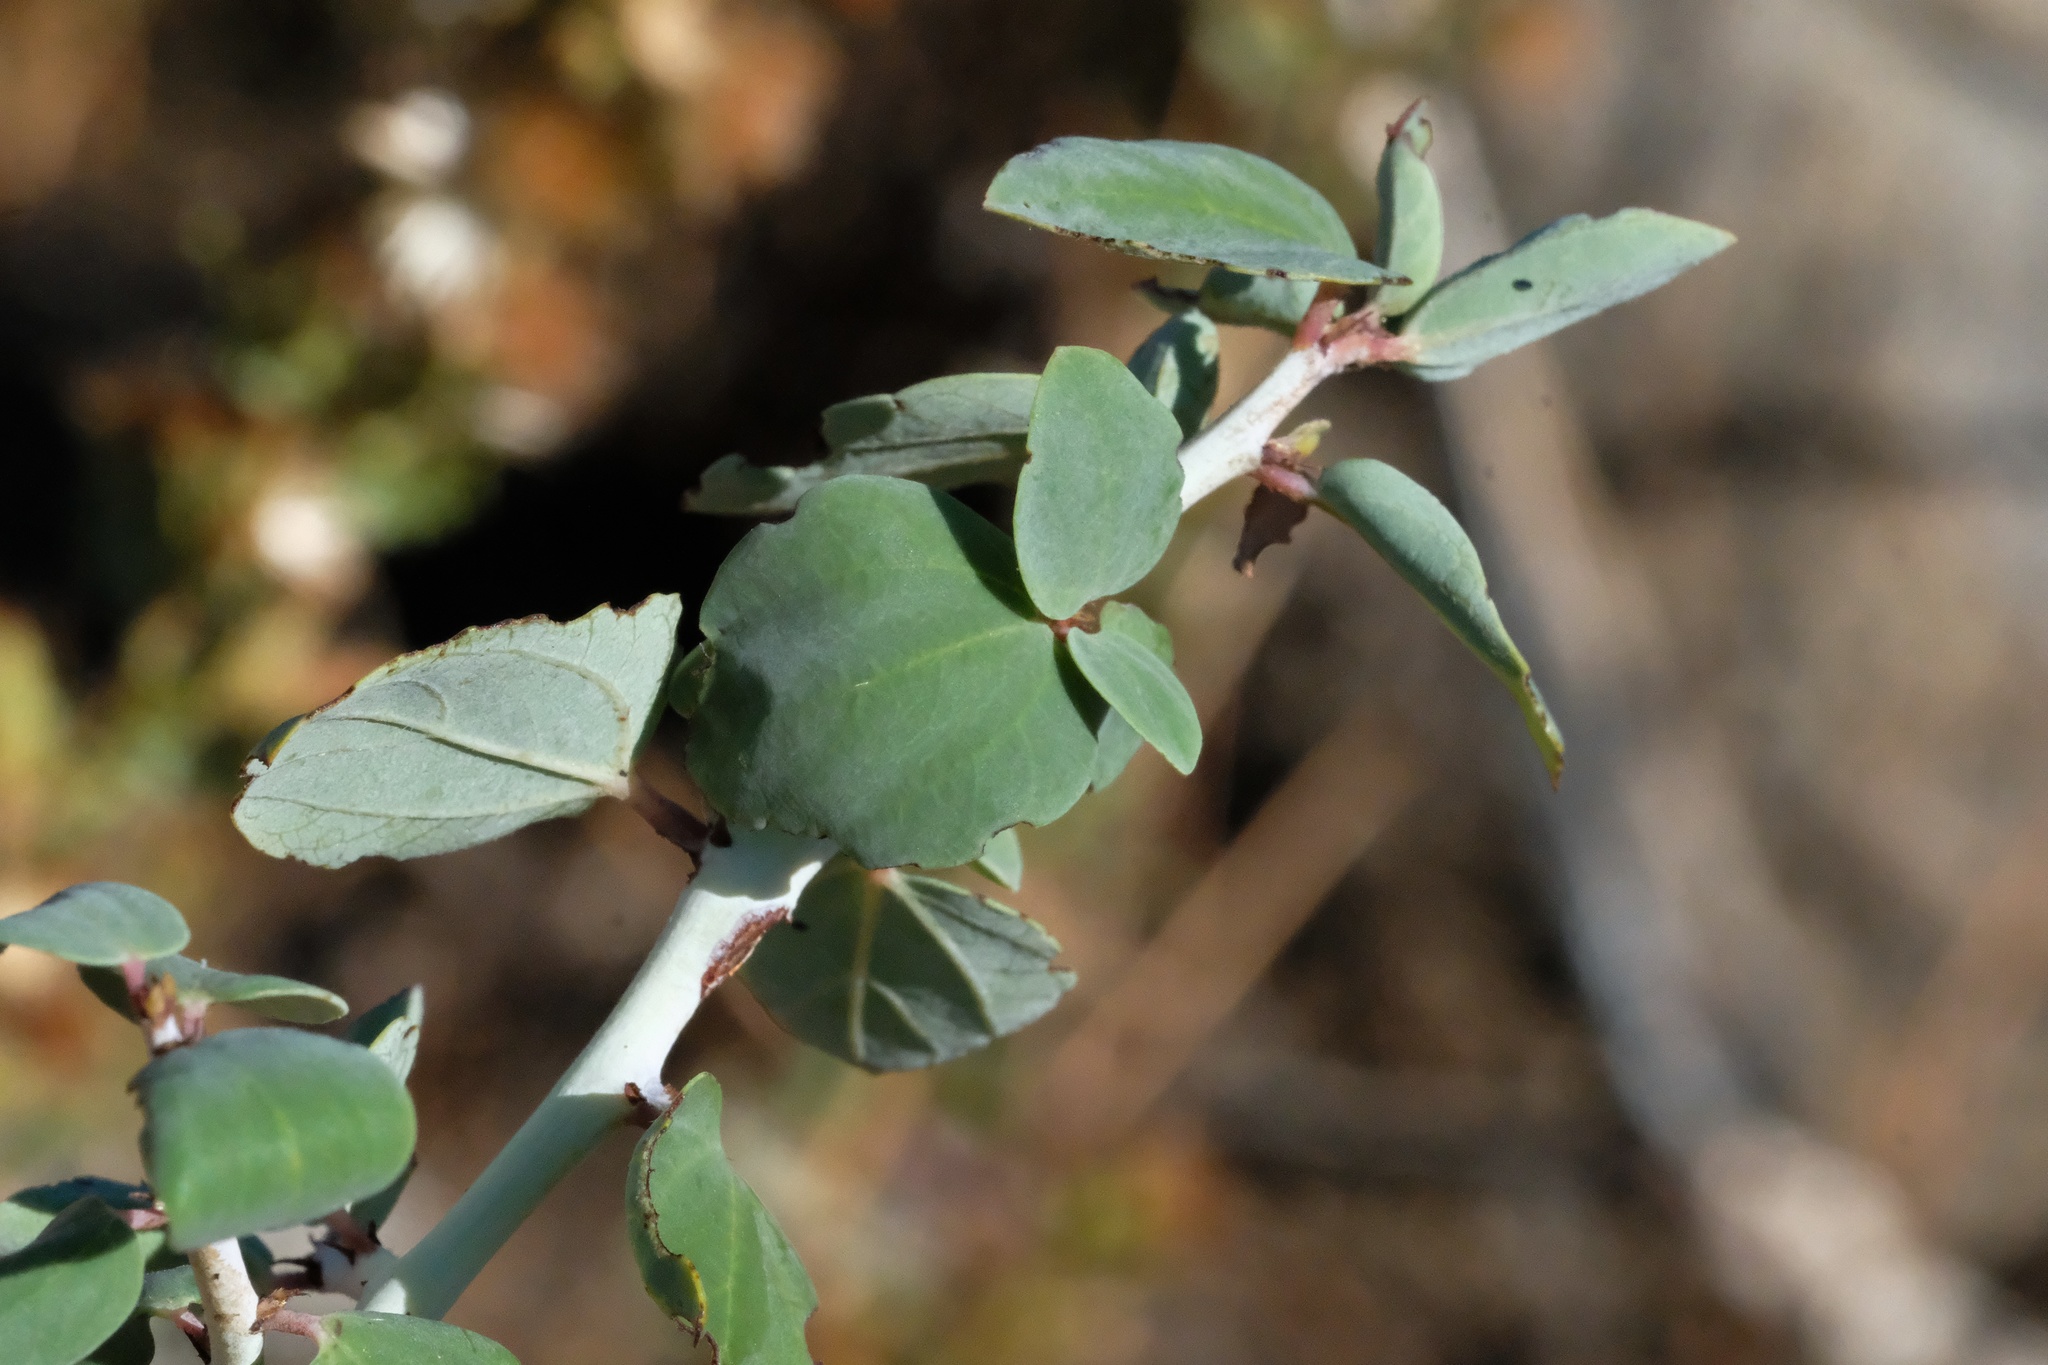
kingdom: Plantae
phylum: Tracheophyta
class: Magnoliopsida
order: Rosales
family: Rhamnaceae
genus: Ceanothus
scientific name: Ceanothus leucodermis
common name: Chaparral whitethorn
